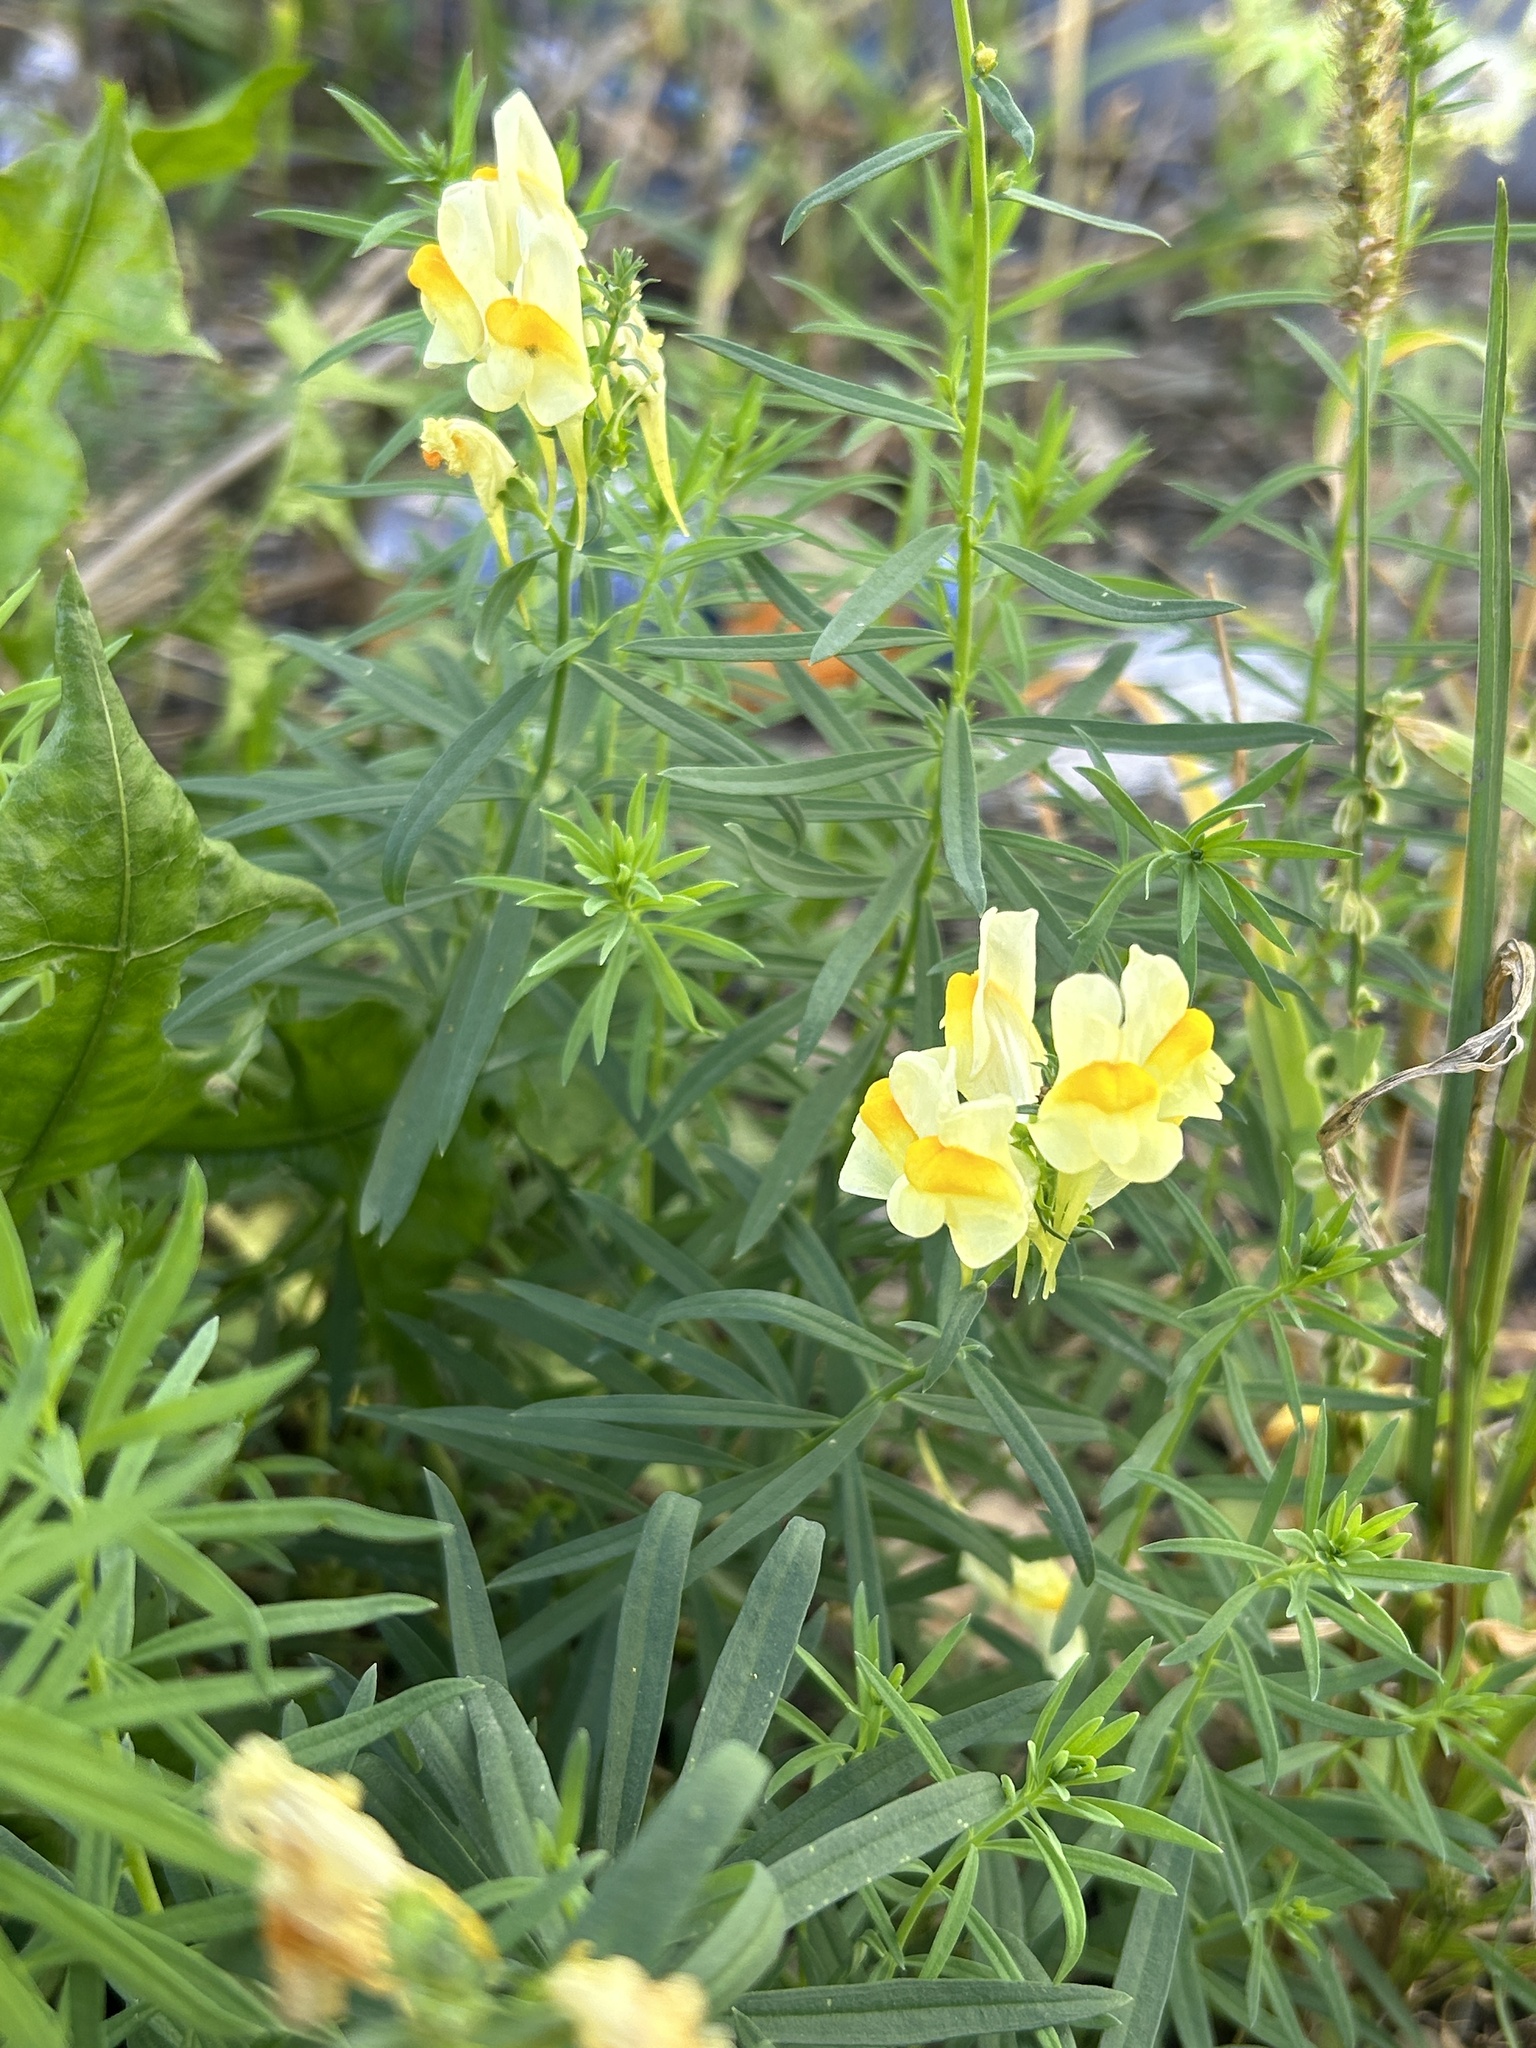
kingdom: Plantae
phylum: Tracheophyta
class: Magnoliopsida
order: Lamiales
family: Plantaginaceae
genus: Linaria
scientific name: Linaria vulgaris
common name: Butter and eggs
